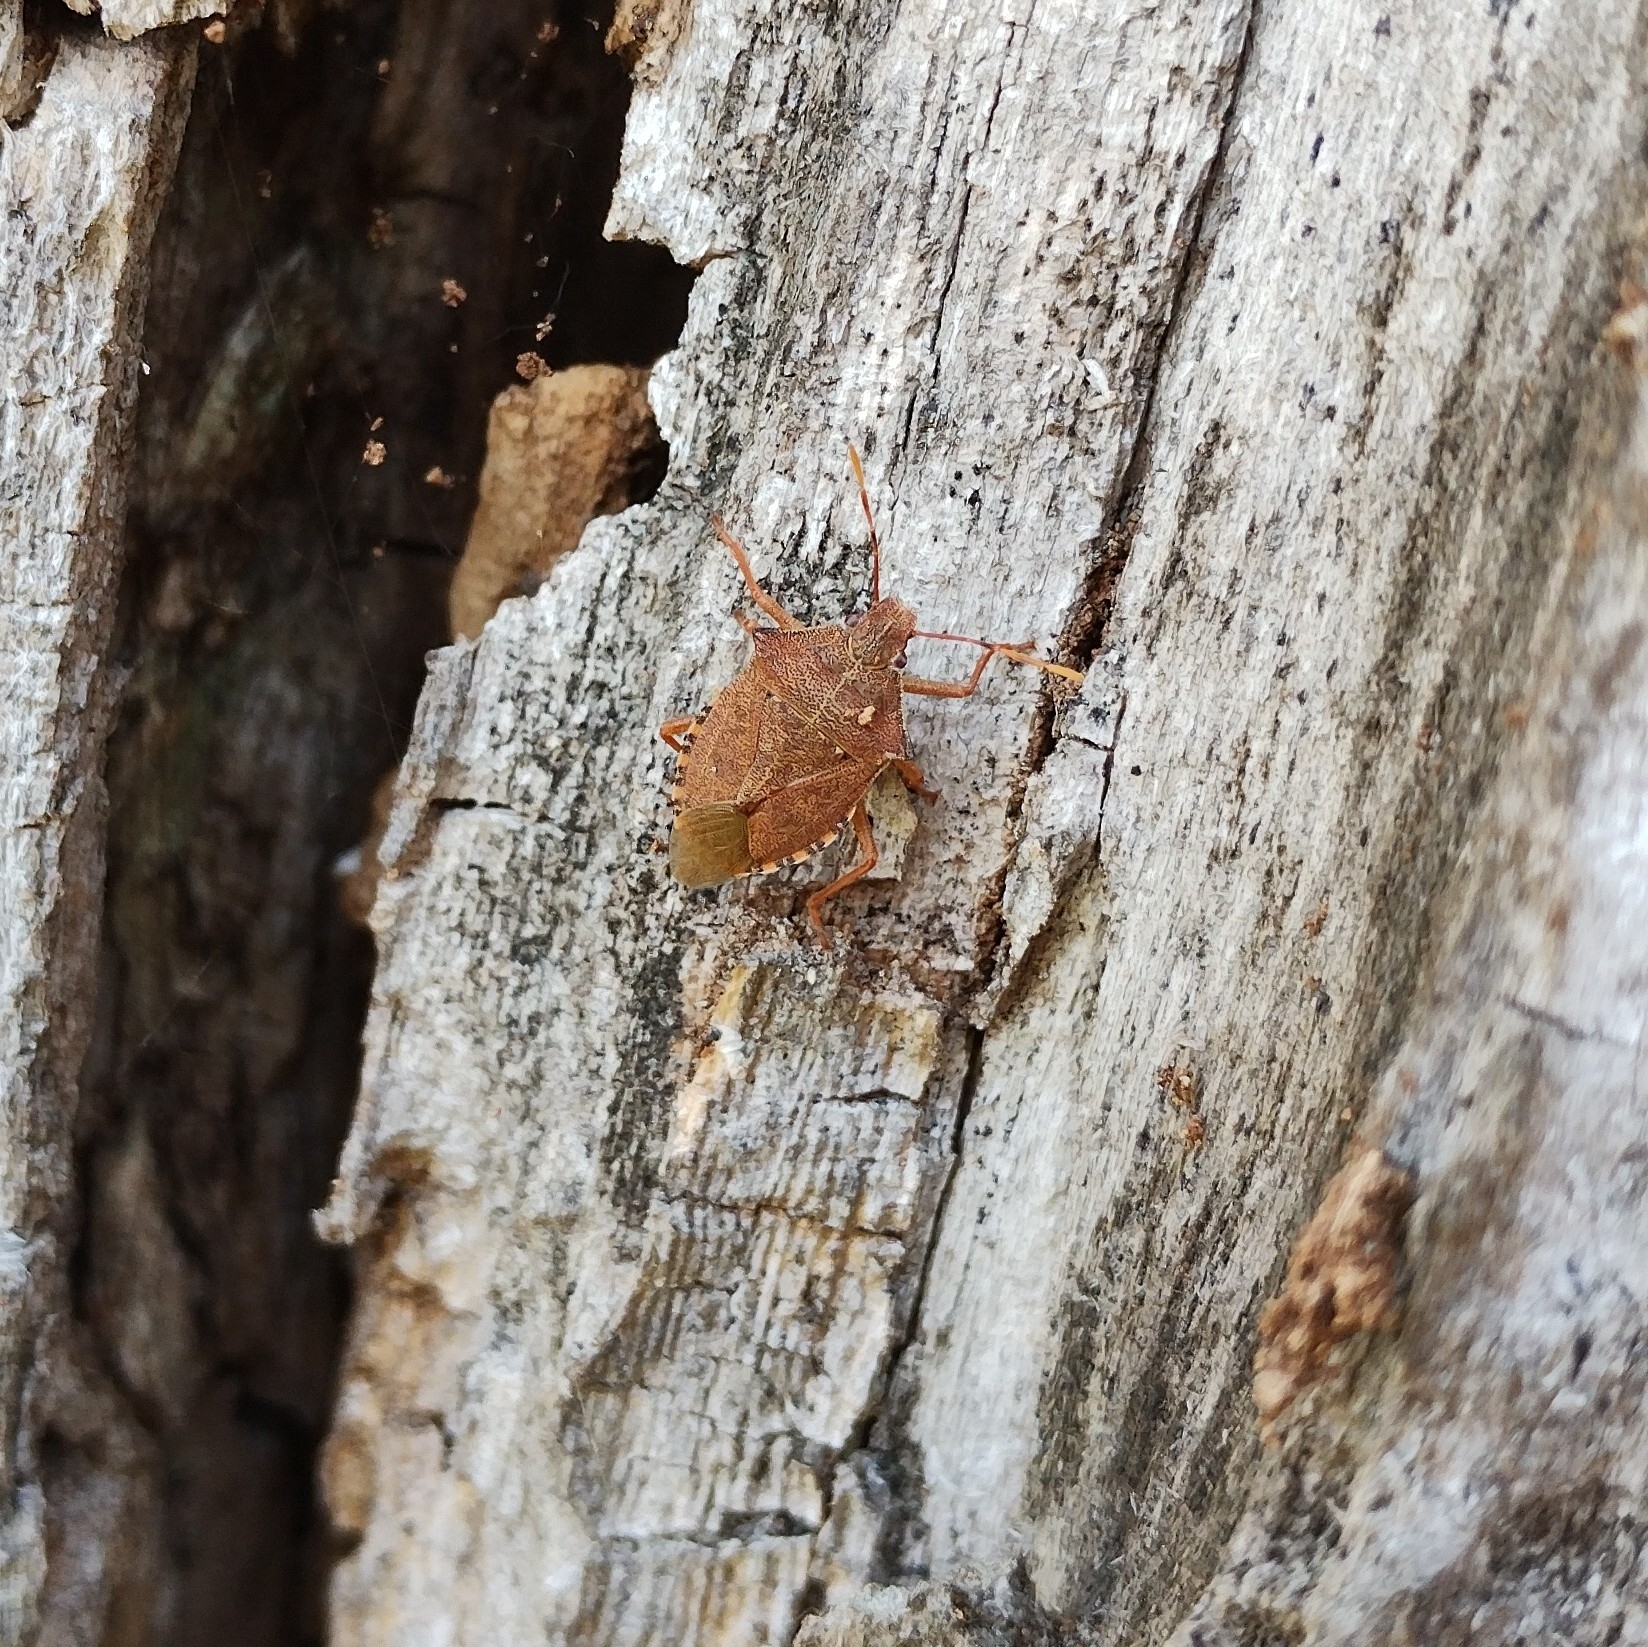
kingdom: Animalia
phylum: Arthropoda
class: Insecta
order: Hemiptera
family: Pentatomidae
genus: Arma
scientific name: Arma custos
